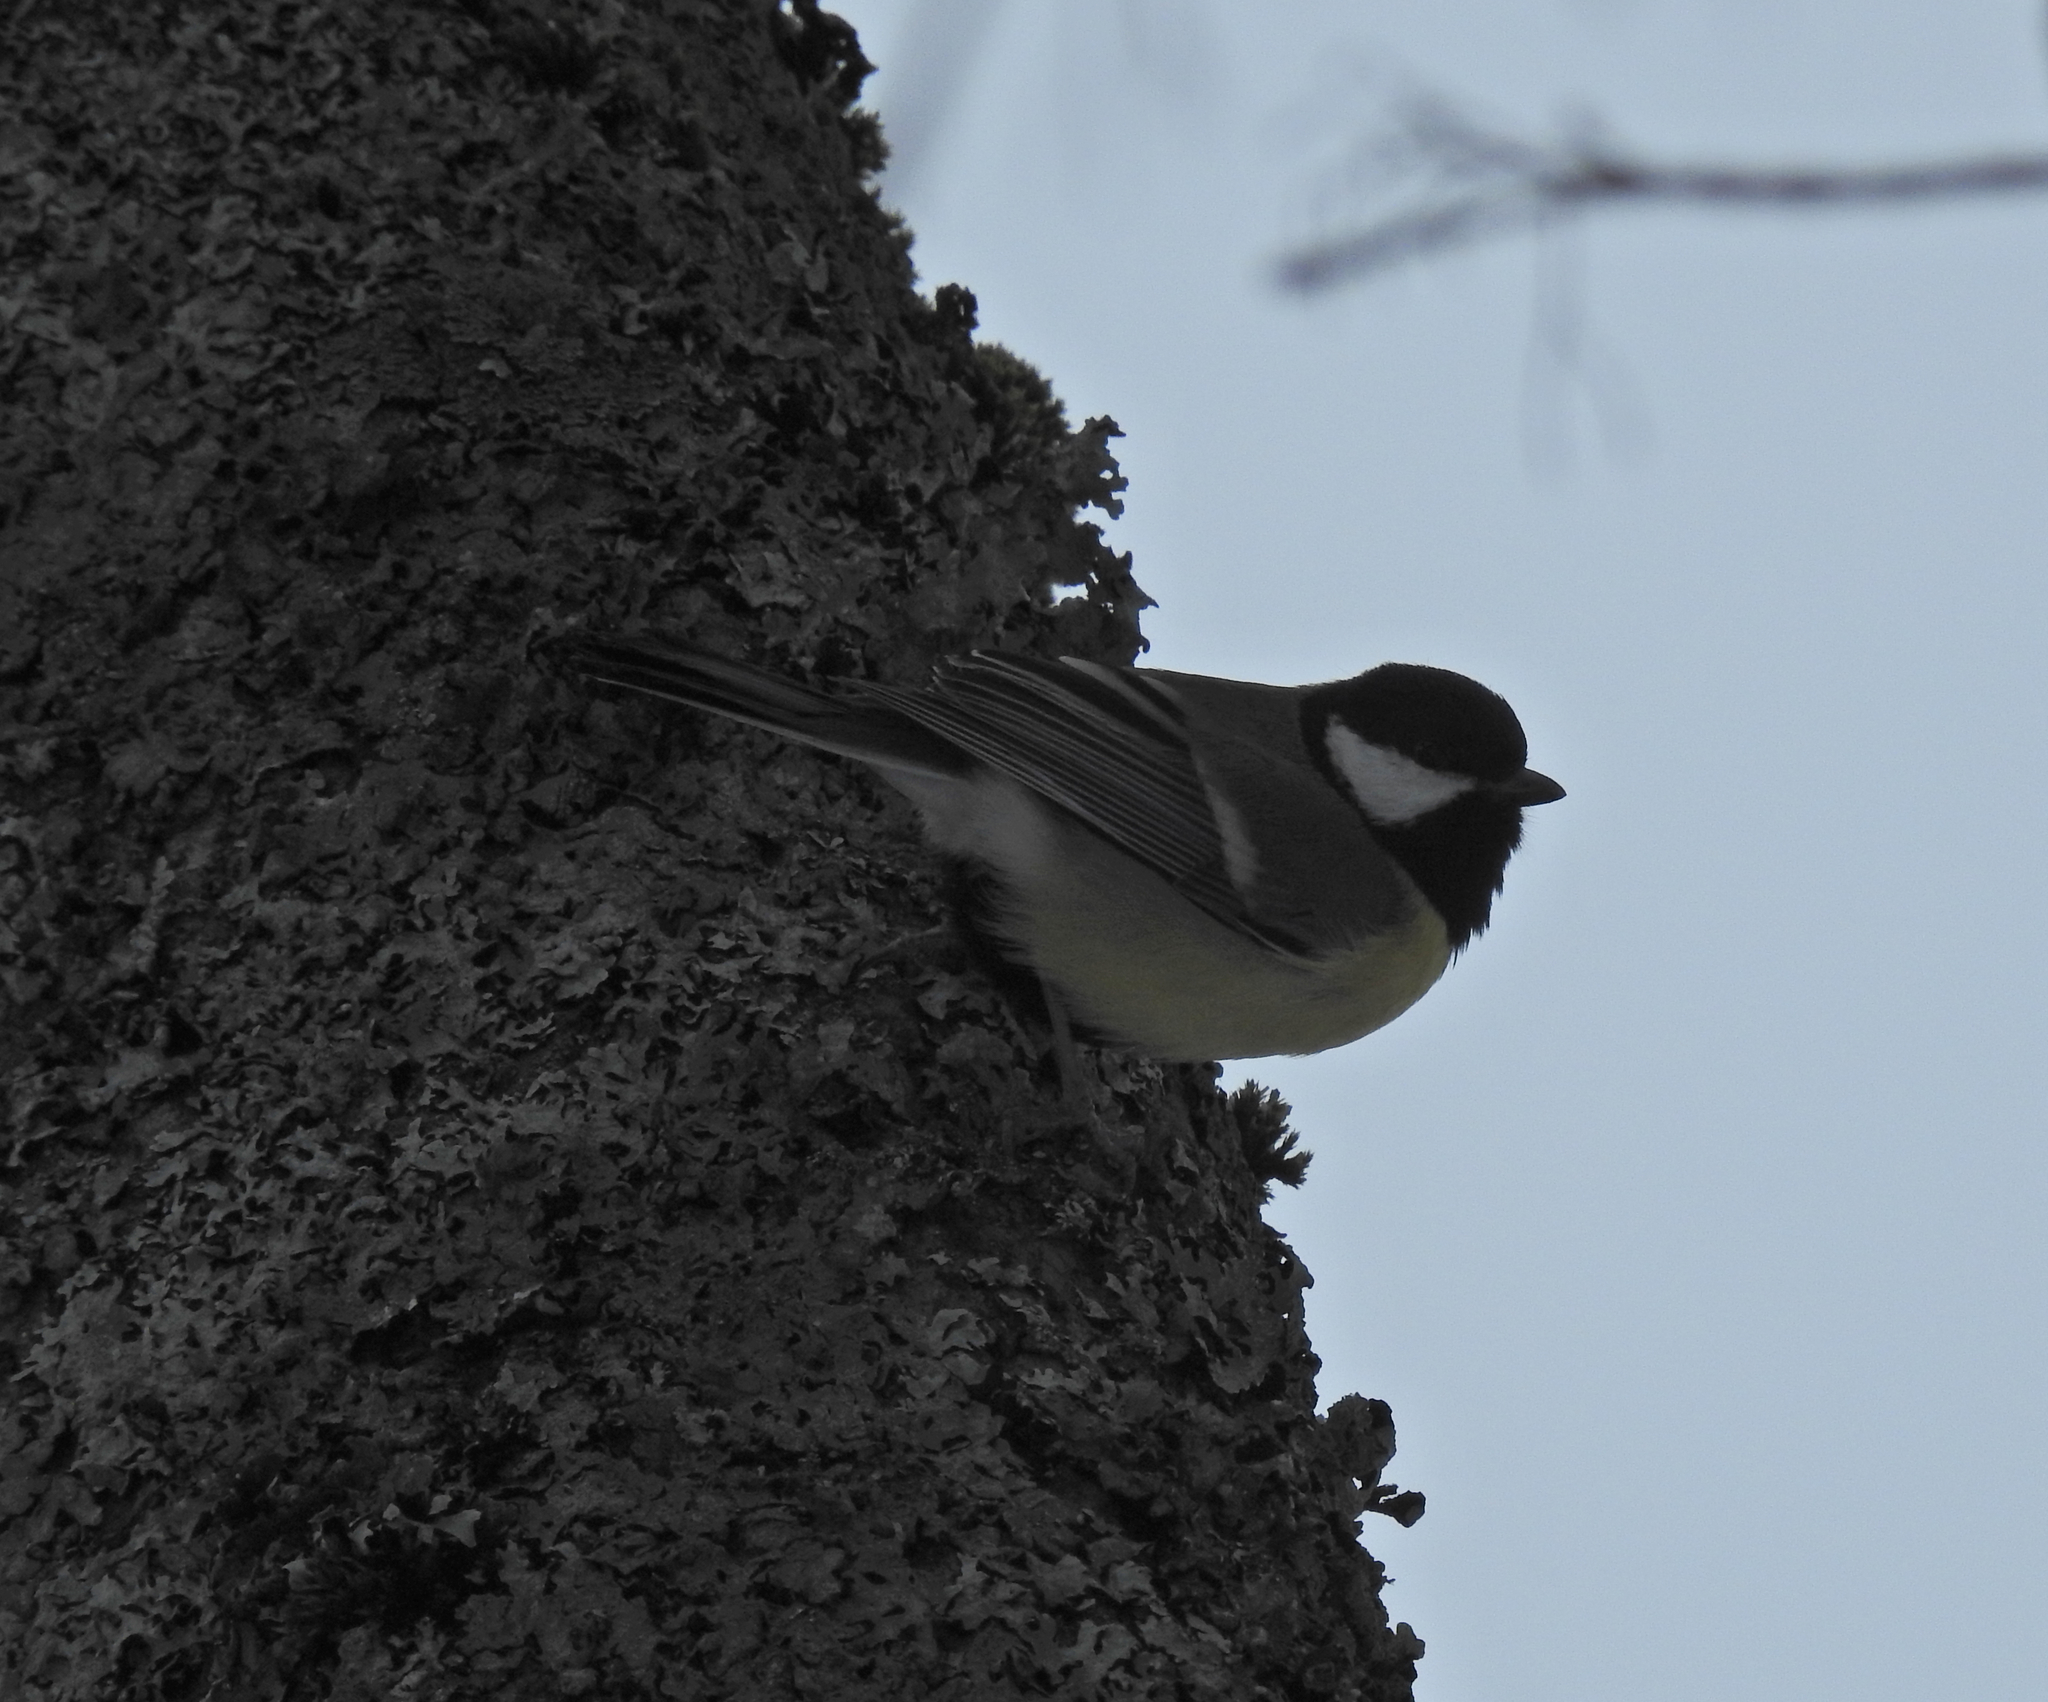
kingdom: Animalia
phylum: Chordata
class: Aves
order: Passeriformes
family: Paridae
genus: Parus
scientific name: Parus major
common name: Great tit
